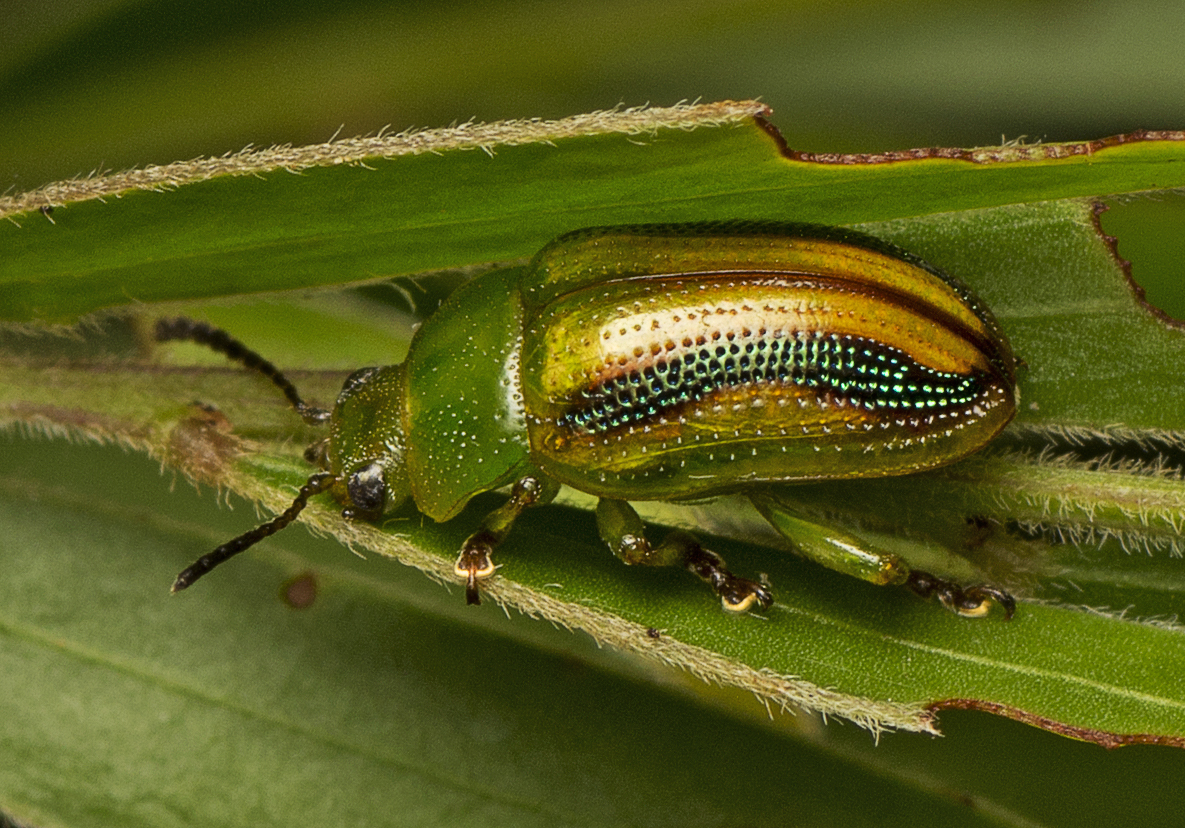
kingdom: Animalia
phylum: Arthropoda
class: Insecta
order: Coleoptera
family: Chrysomelidae
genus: Calomela
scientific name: Calomela
